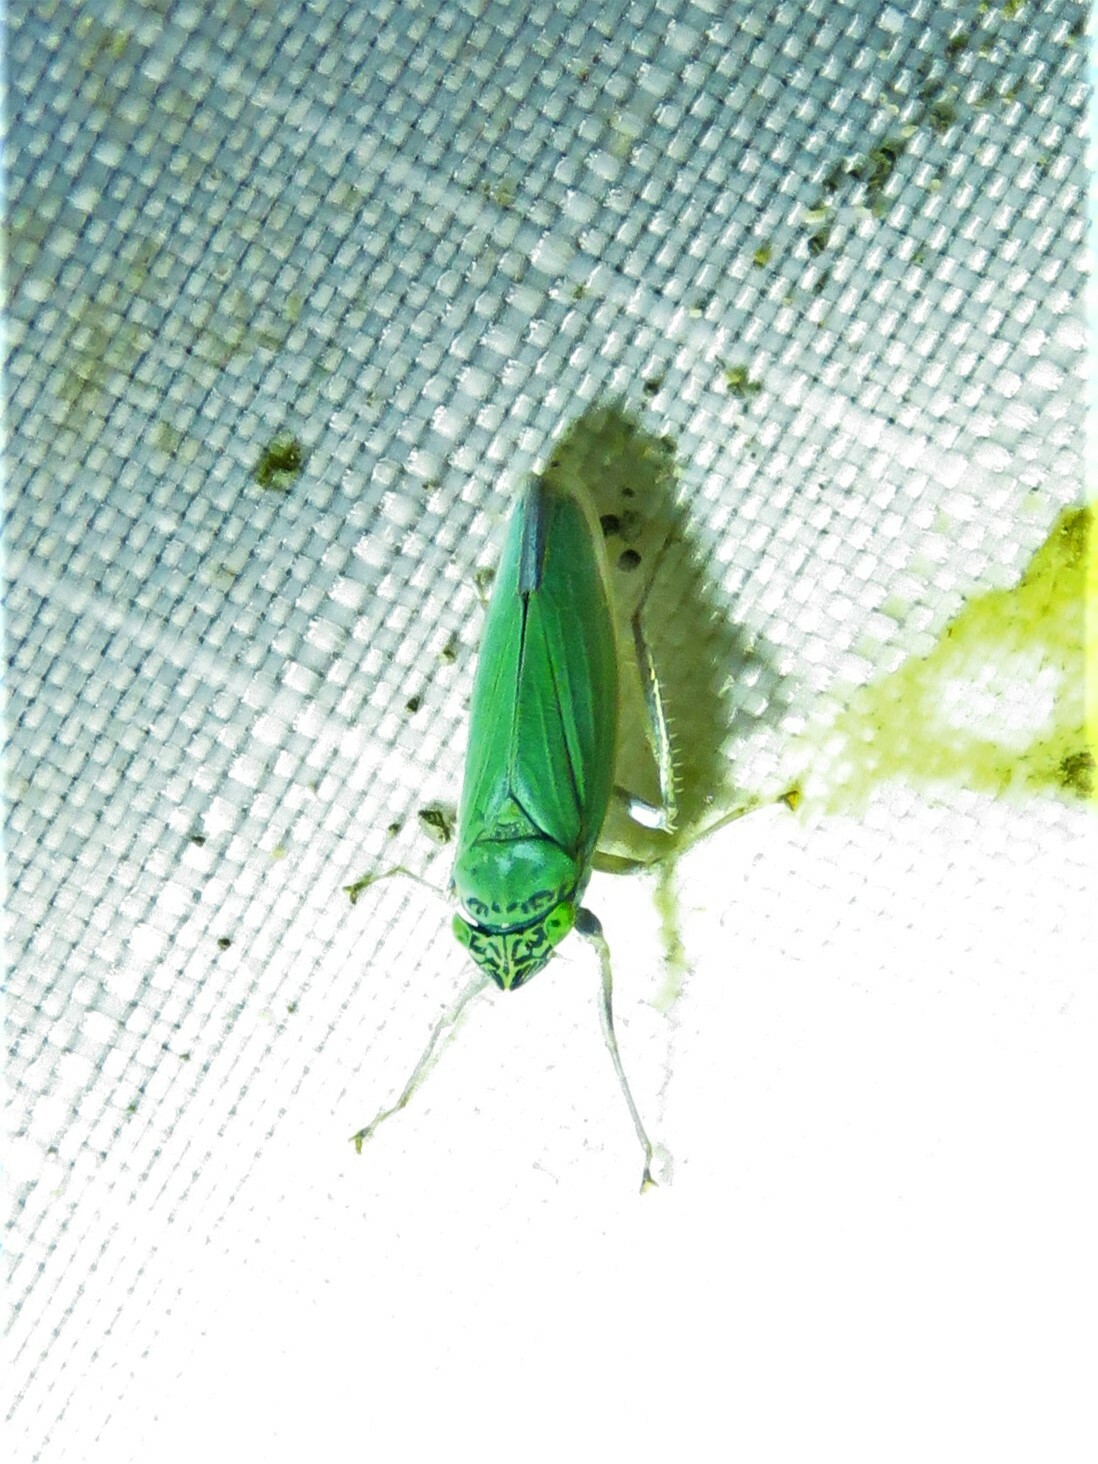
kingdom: Animalia
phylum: Arthropoda
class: Insecta
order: Hemiptera
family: Cicadellidae
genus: Draeculacephala
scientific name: Draeculacephala inscripta
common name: Leafhopper
